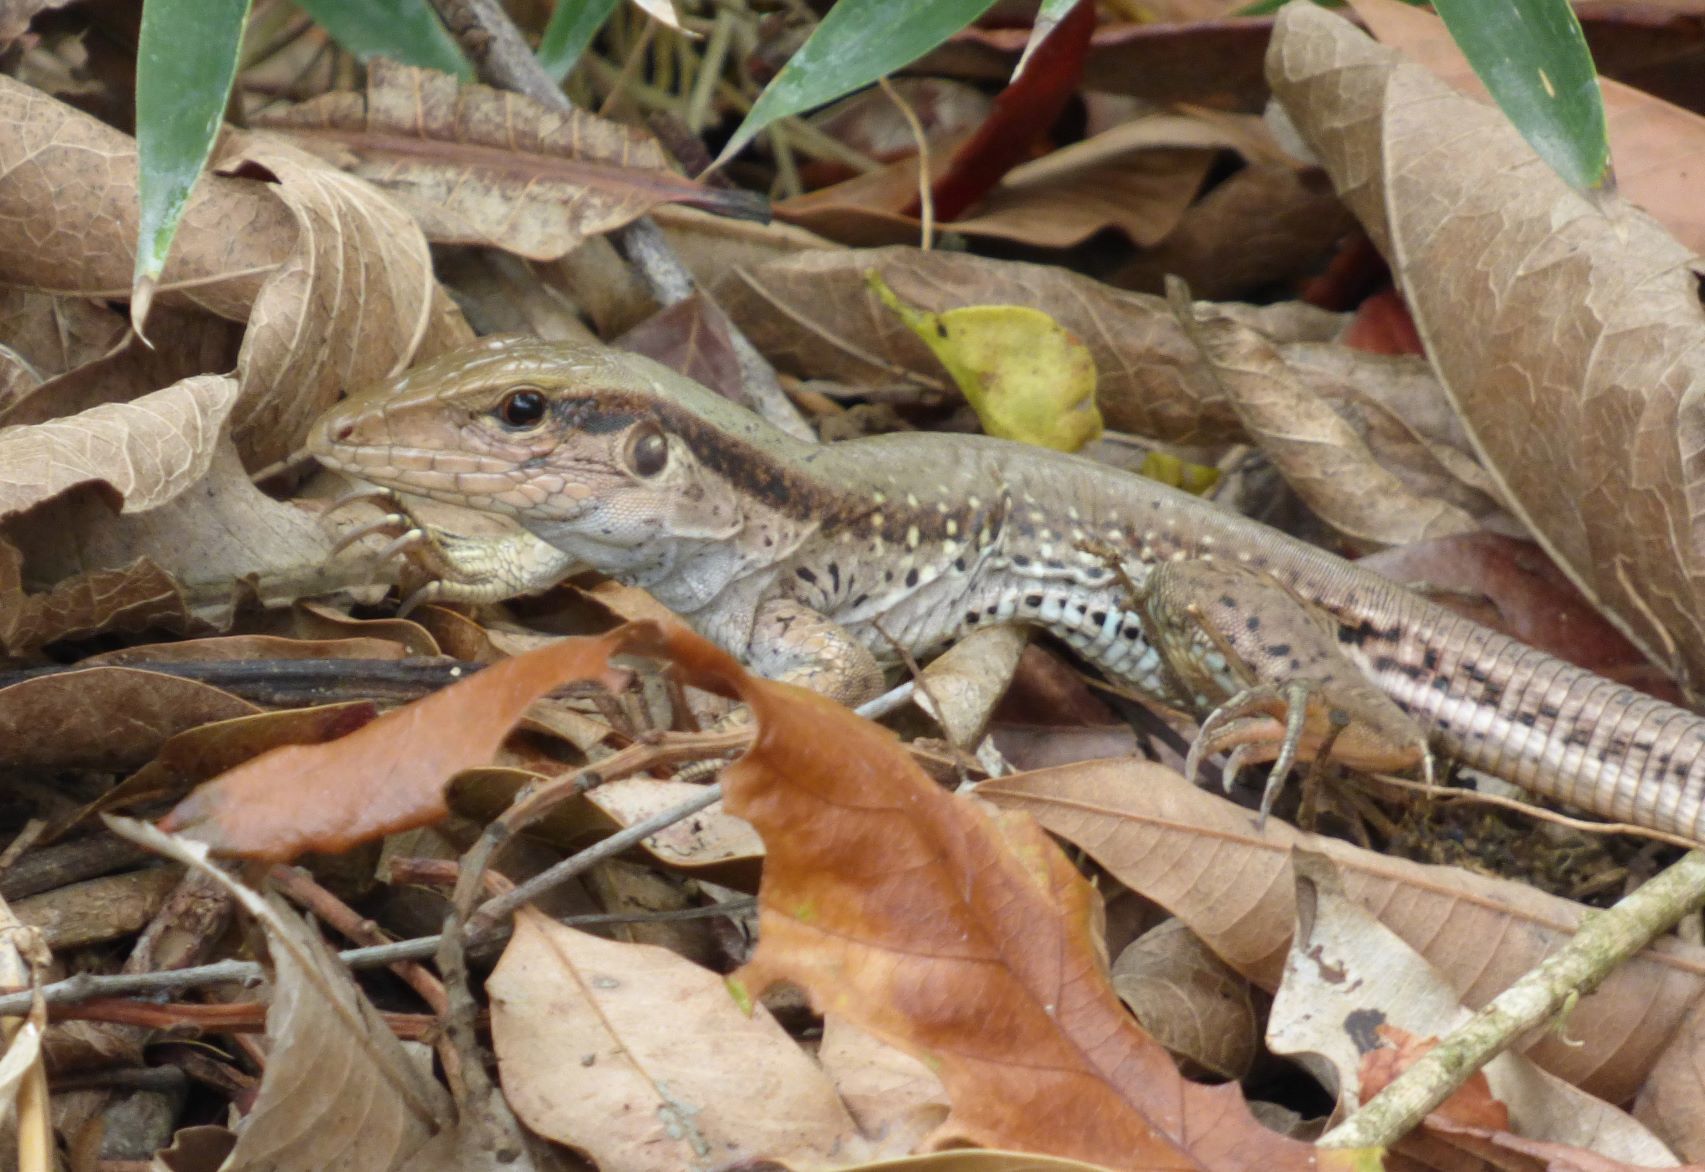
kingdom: Animalia
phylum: Chordata
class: Squamata
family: Teiidae
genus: Ameiva
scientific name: Ameiva atrigularis
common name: Venezuelan ameiva
